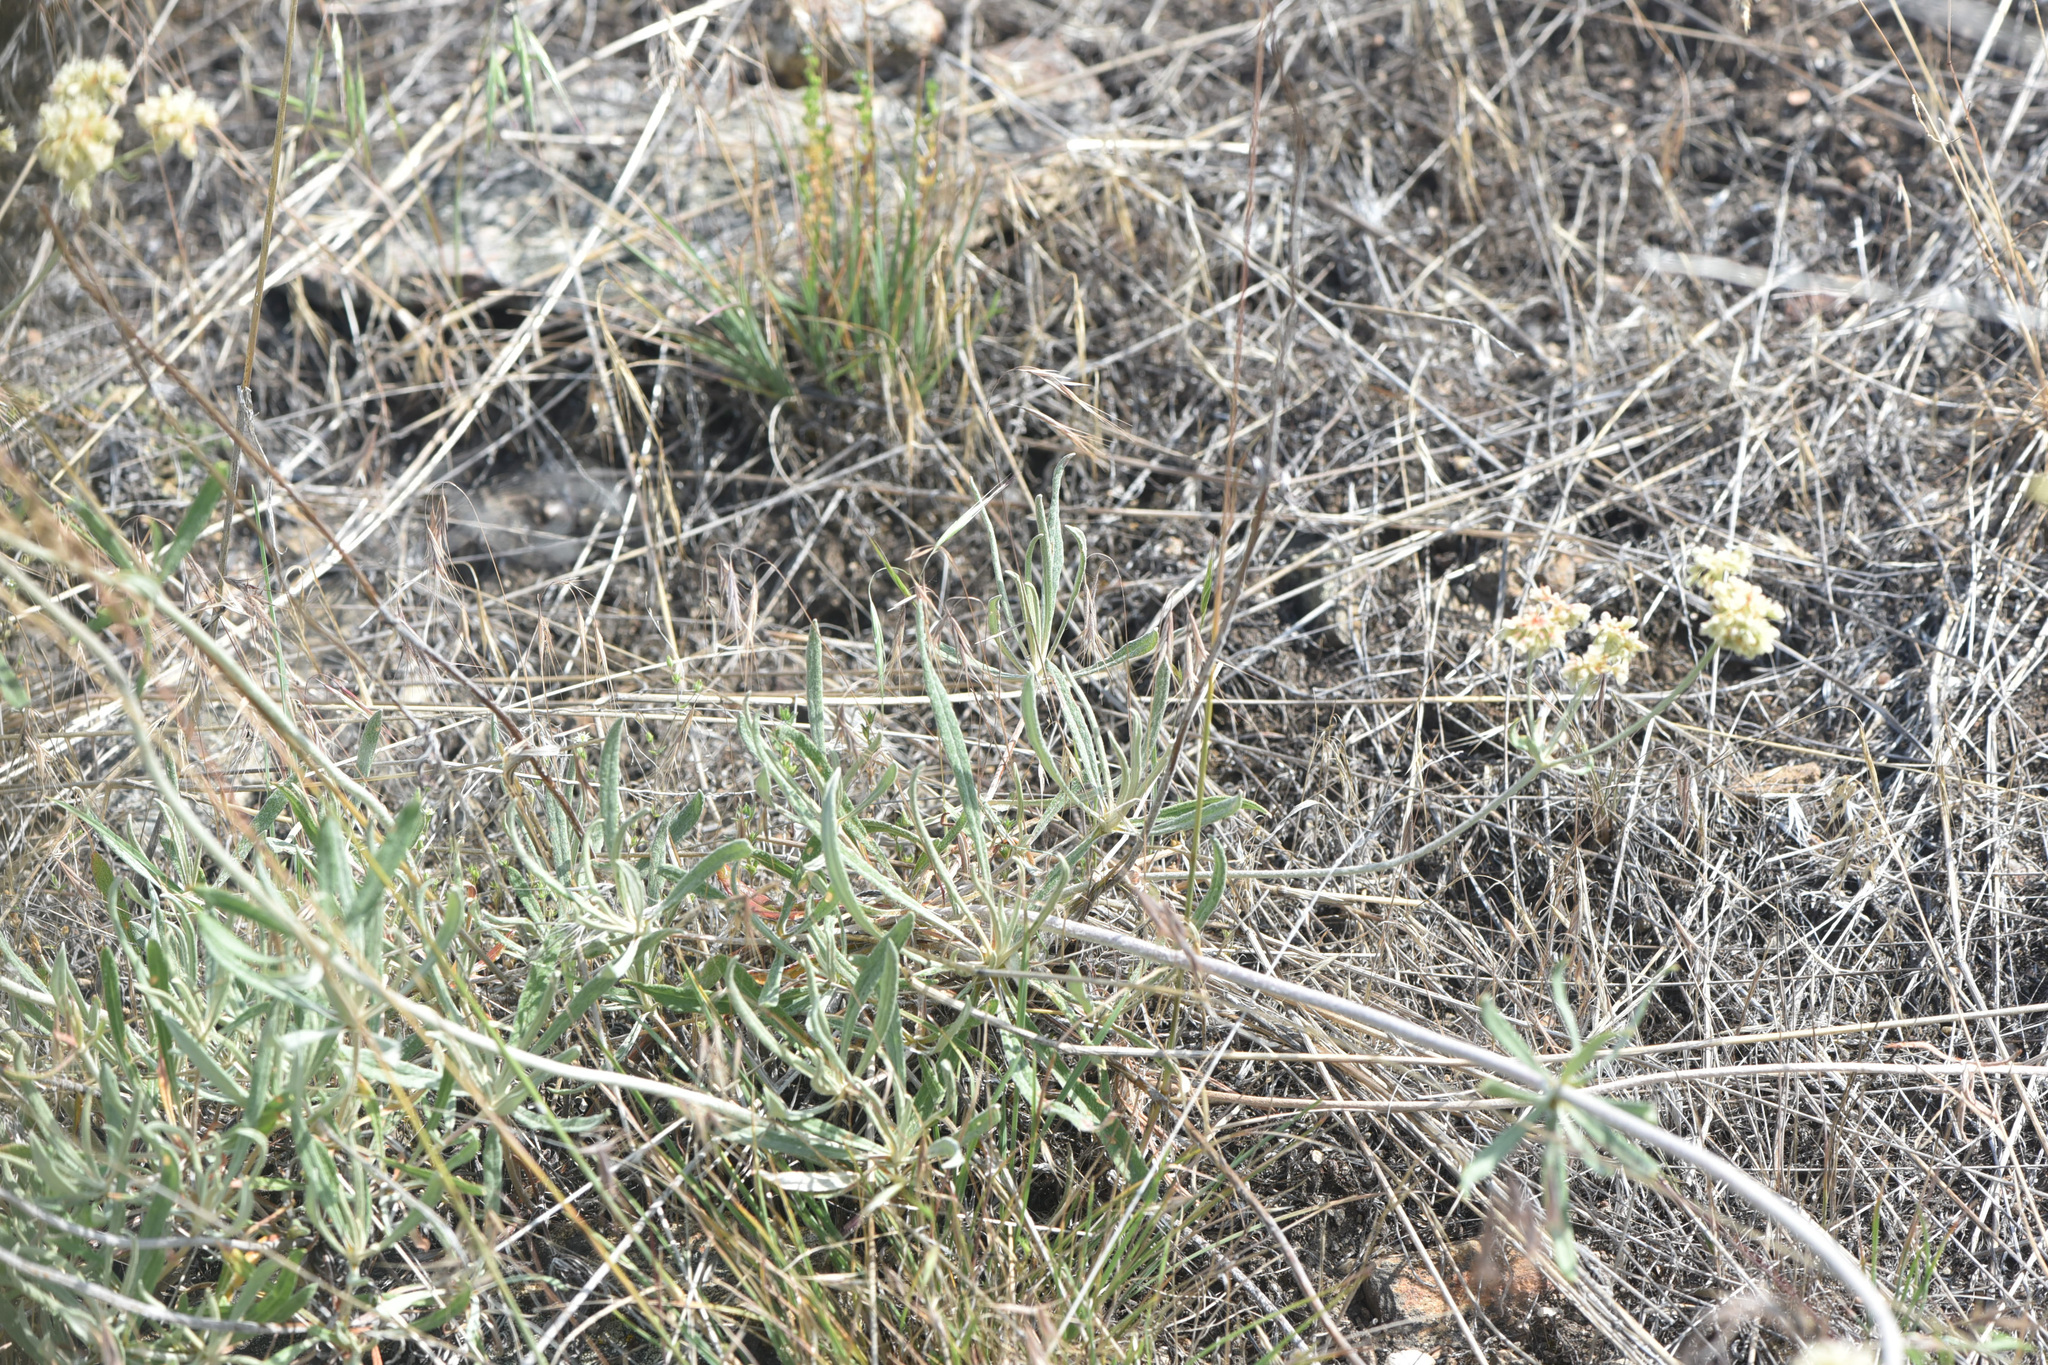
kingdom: Plantae
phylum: Tracheophyta
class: Magnoliopsida
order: Caryophyllales
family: Polygonaceae
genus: Eriogonum
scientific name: Eriogonum heracleoides
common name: Wyeth's buckwheat
